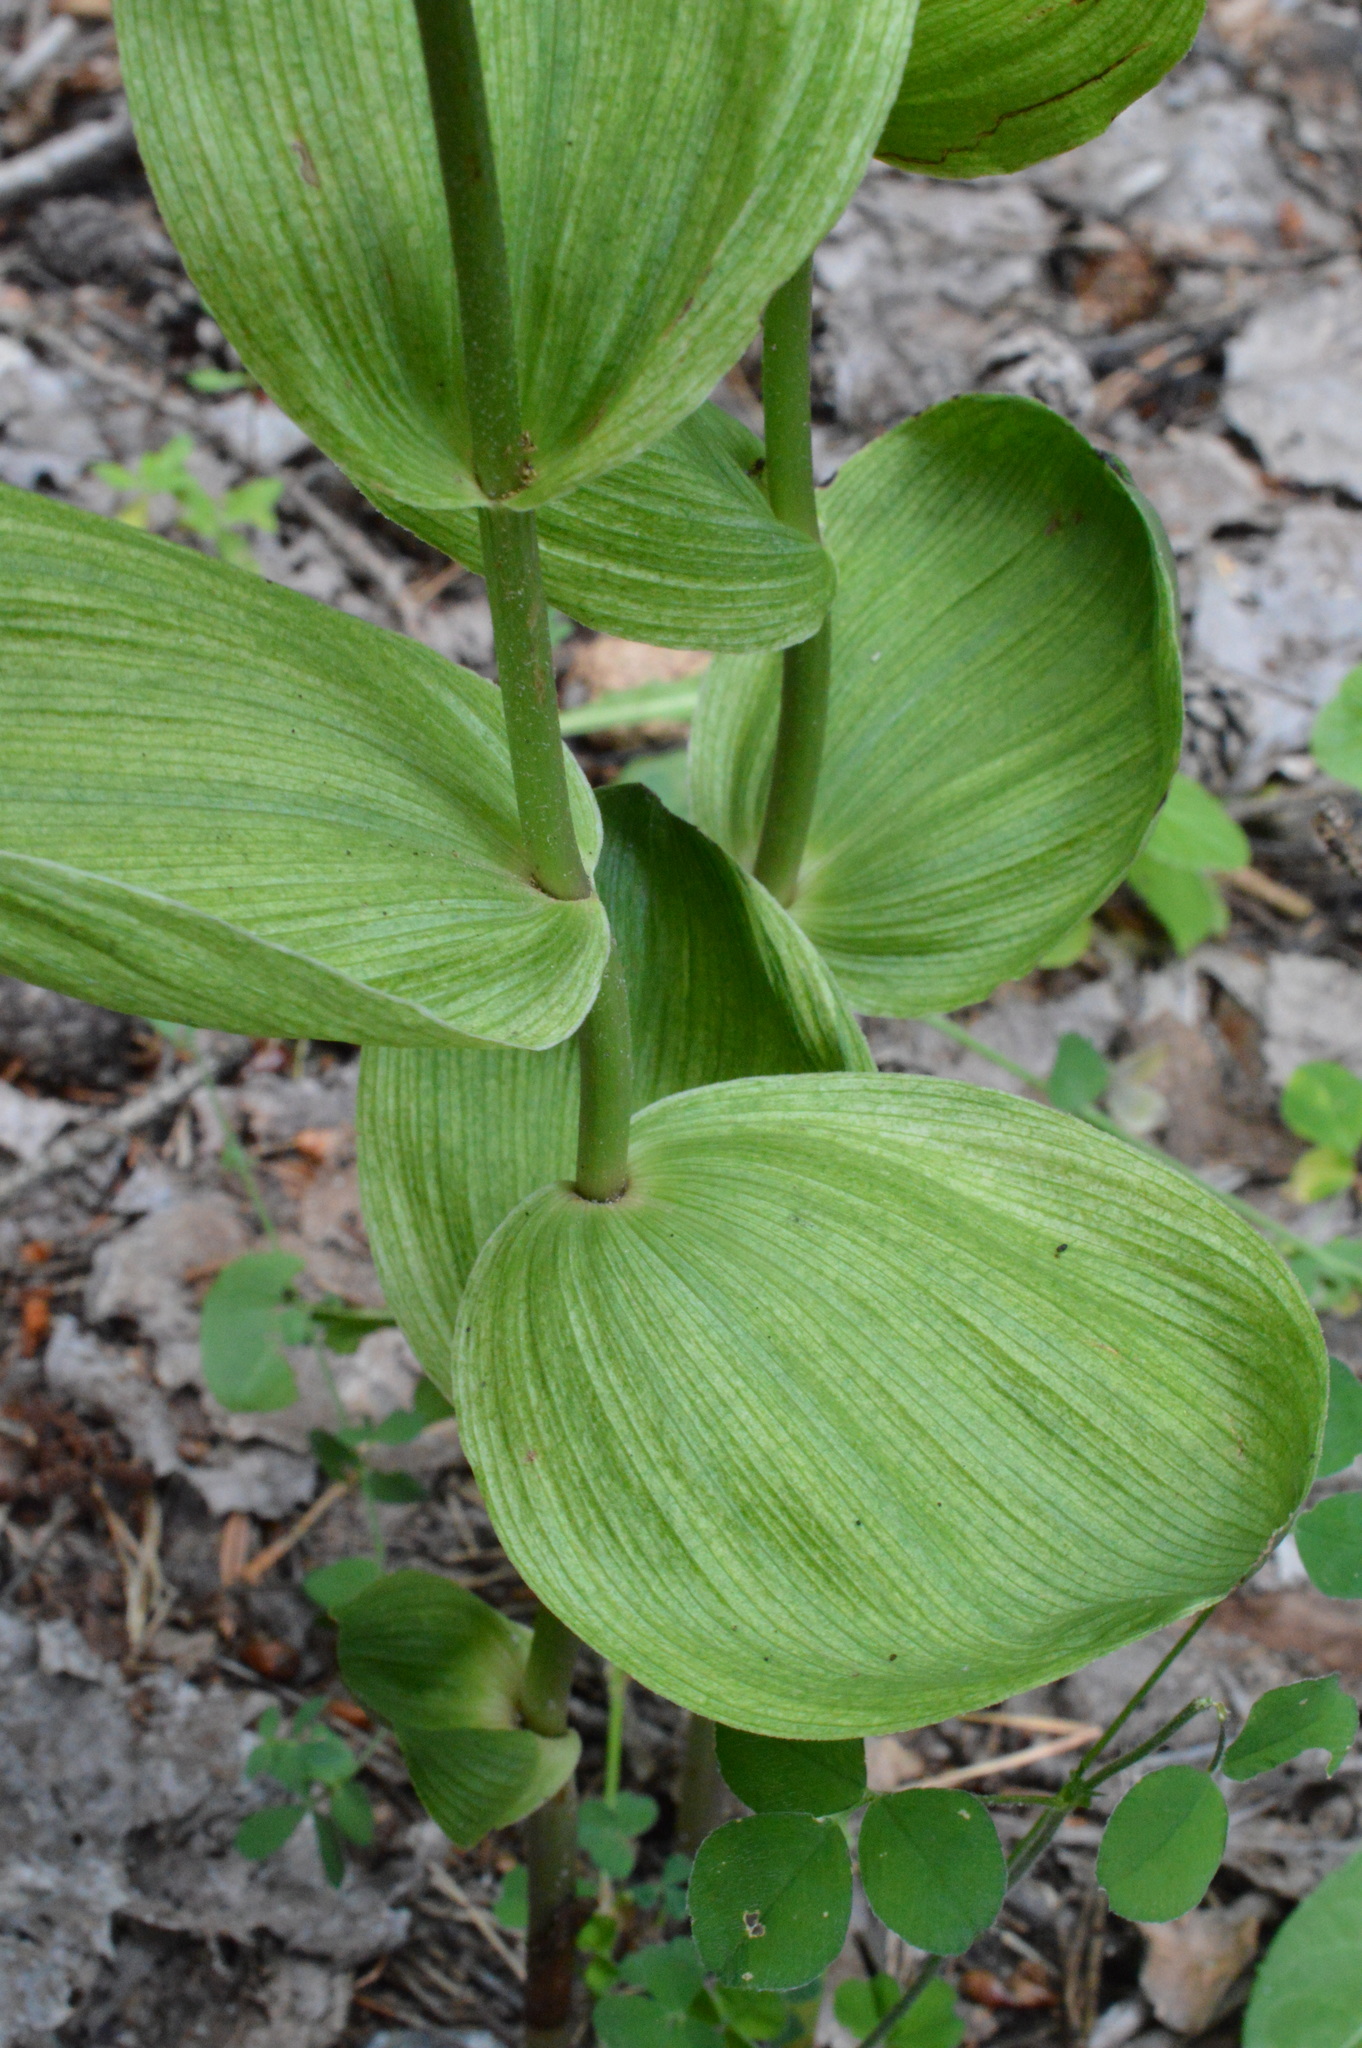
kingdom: Plantae
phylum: Tracheophyta
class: Liliopsida
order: Asparagales
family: Orchidaceae
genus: Epipactis
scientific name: Epipactis helleborine
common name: Broad-leaved helleborine
